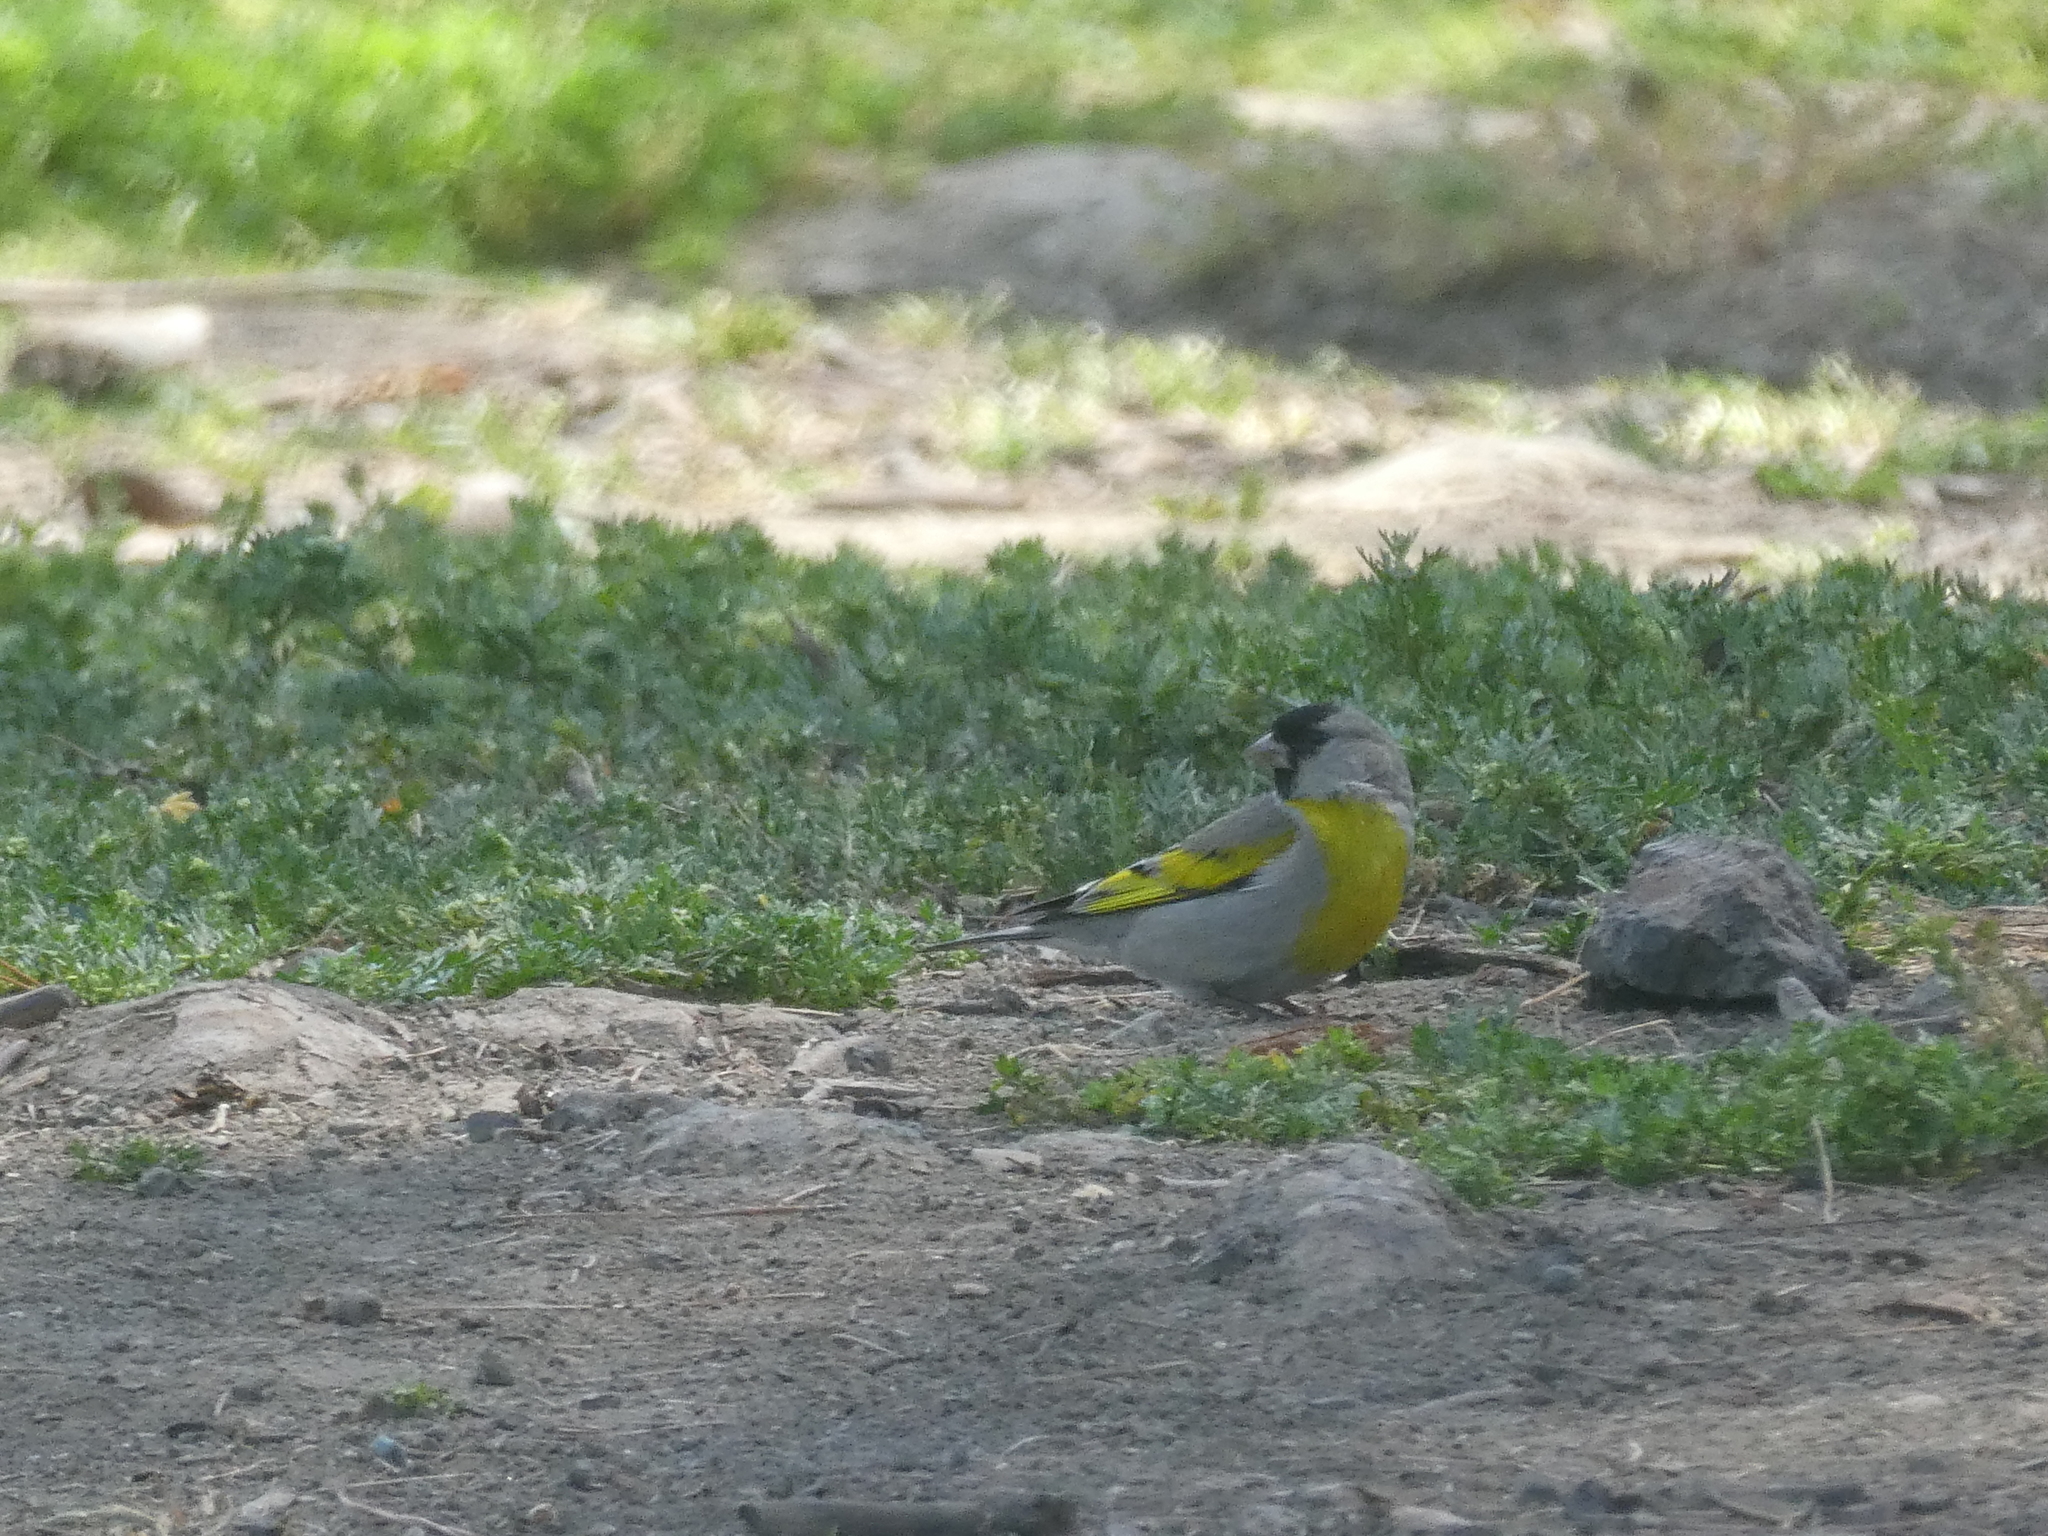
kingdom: Animalia
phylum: Chordata
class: Aves
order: Passeriformes
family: Fringillidae
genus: Spinus
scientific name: Spinus lawrencei
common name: Lawrence's goldfinch
